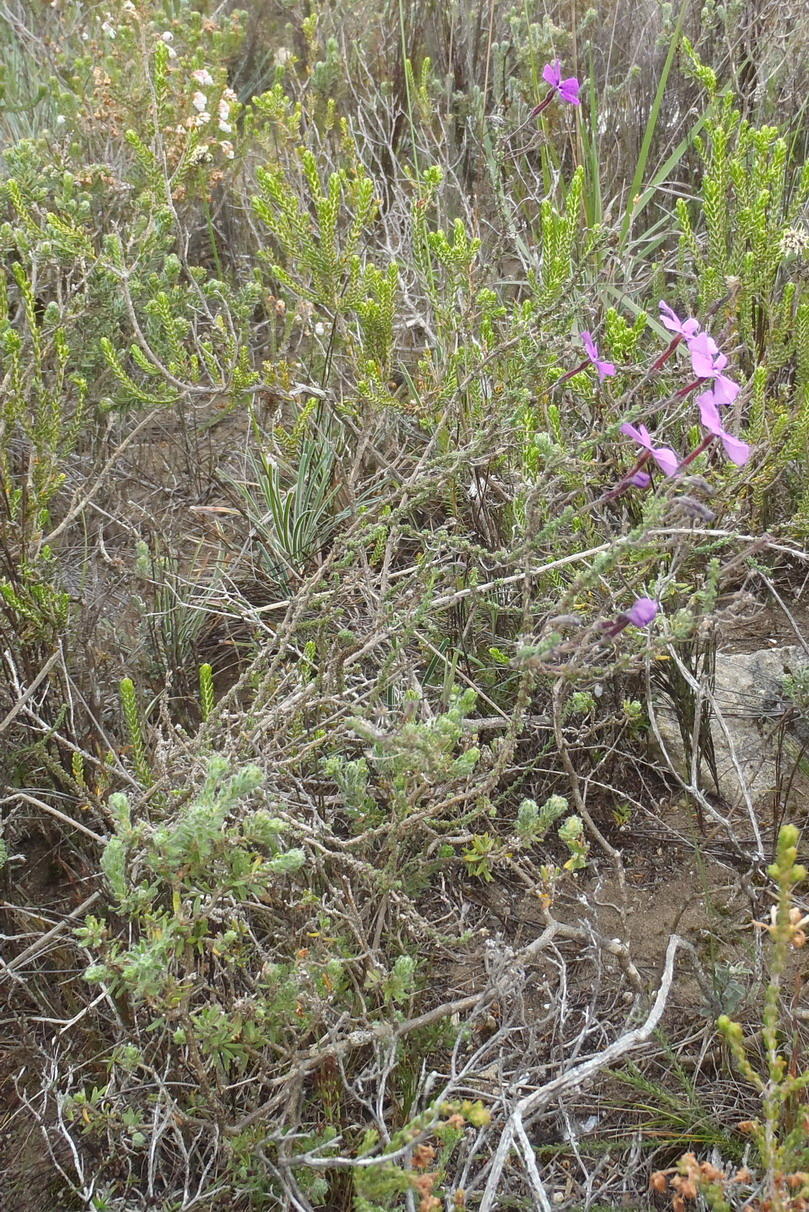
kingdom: Plantae
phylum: Tracheophyta
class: Magnoliopsida
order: Lamiales
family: Scrophulariaceae
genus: Jamesbrittenia
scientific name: Jamesbrittenia calciphila
